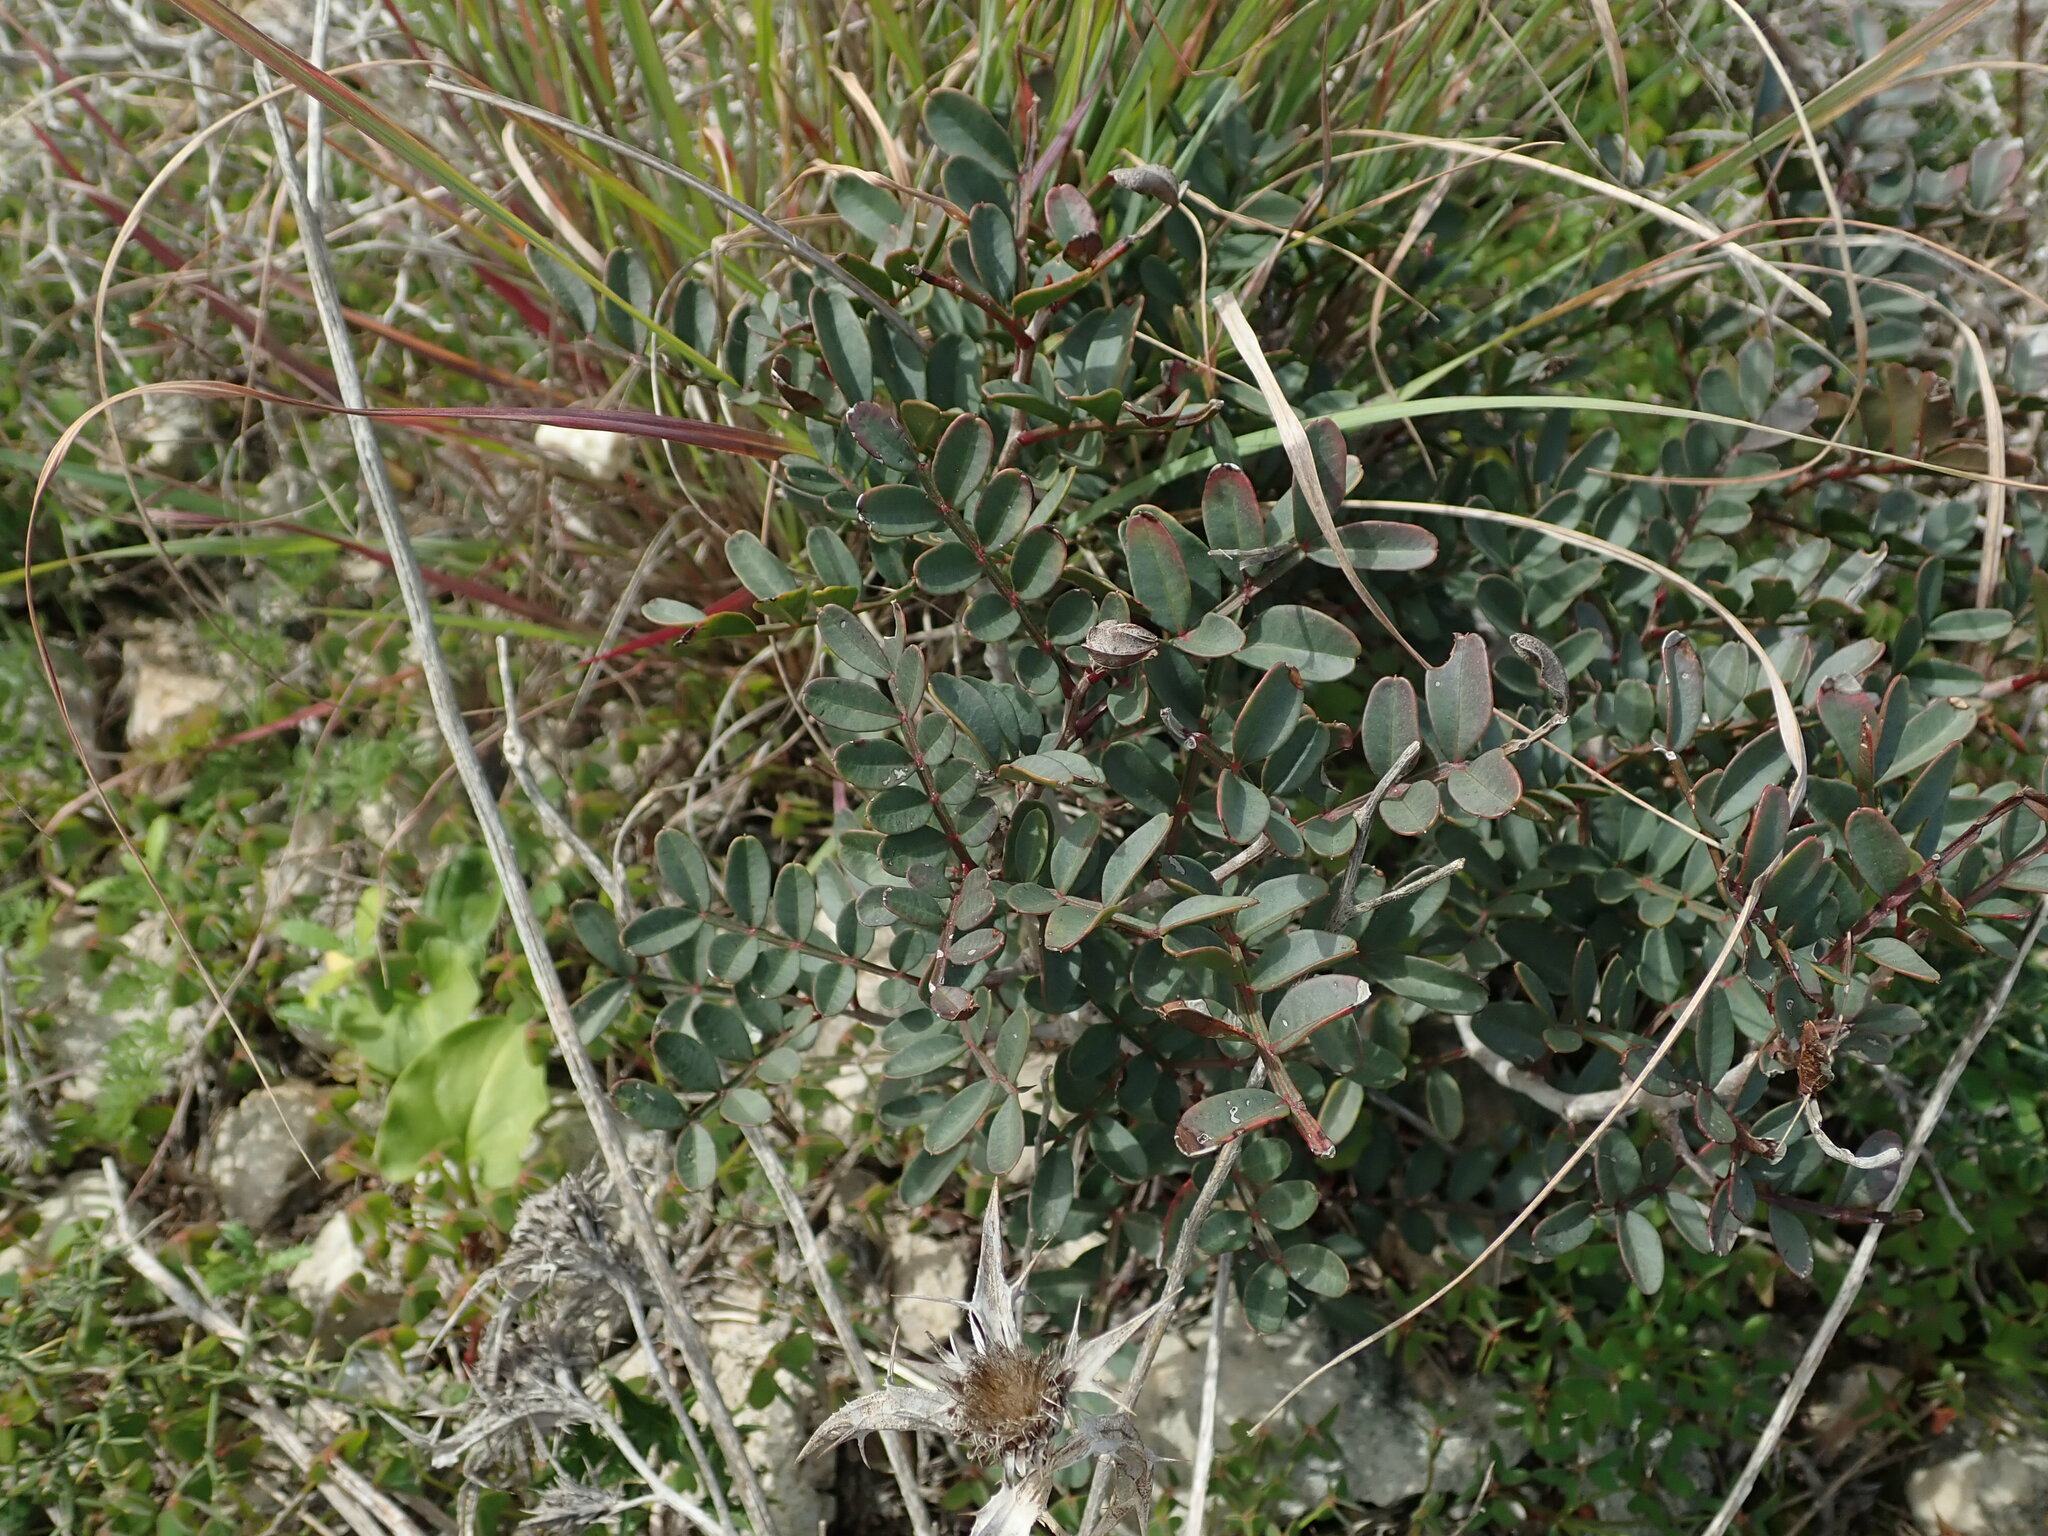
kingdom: Plantae
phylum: Tracheophyta
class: Magnoliopsida
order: Sapindales
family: Anacardiaceae
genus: Pistacia
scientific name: Pistacia lentiscus
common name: Lentisk
